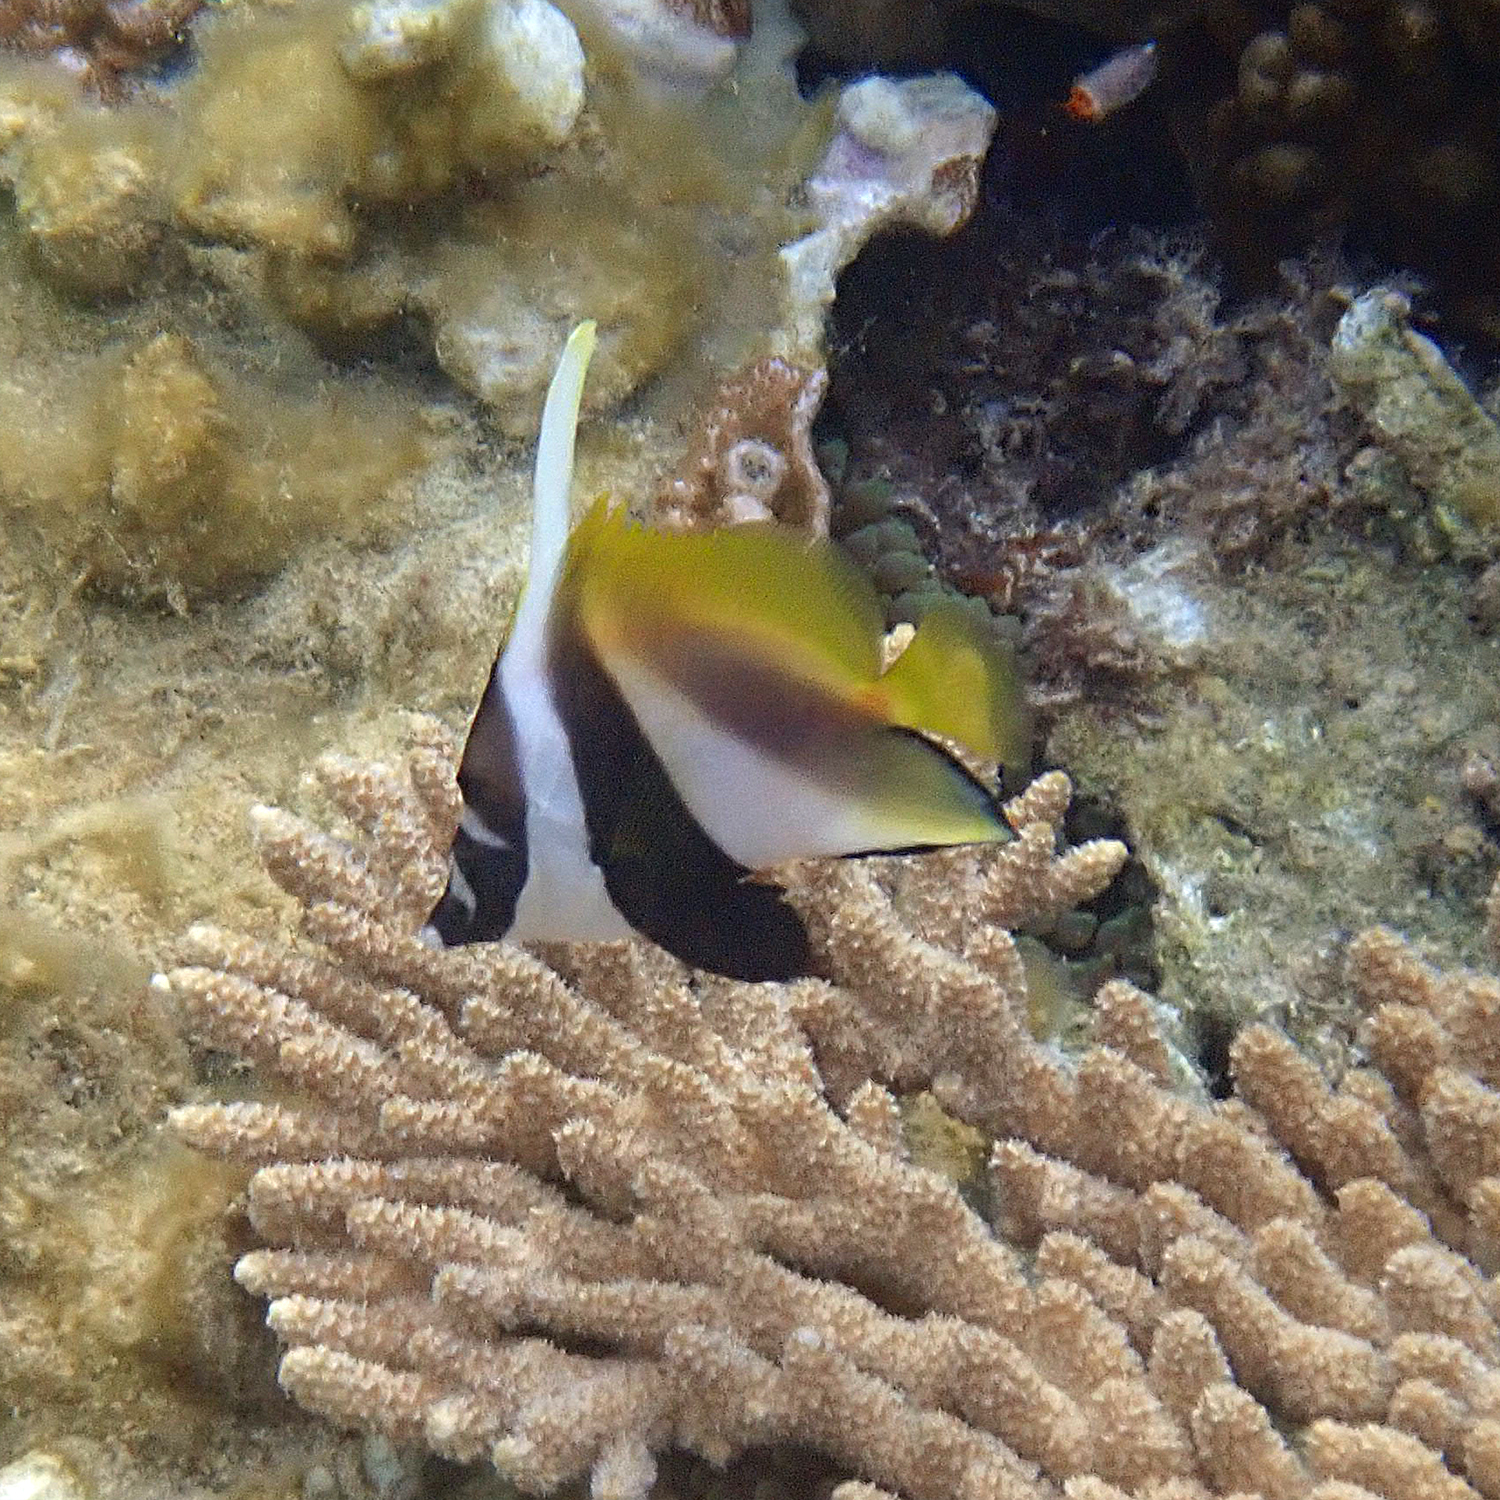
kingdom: Animalia
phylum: Chordata
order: Perciformes
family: Chaetodontidae
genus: Heniochus
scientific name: Heniochus monoceros
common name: Masked bannerfish
